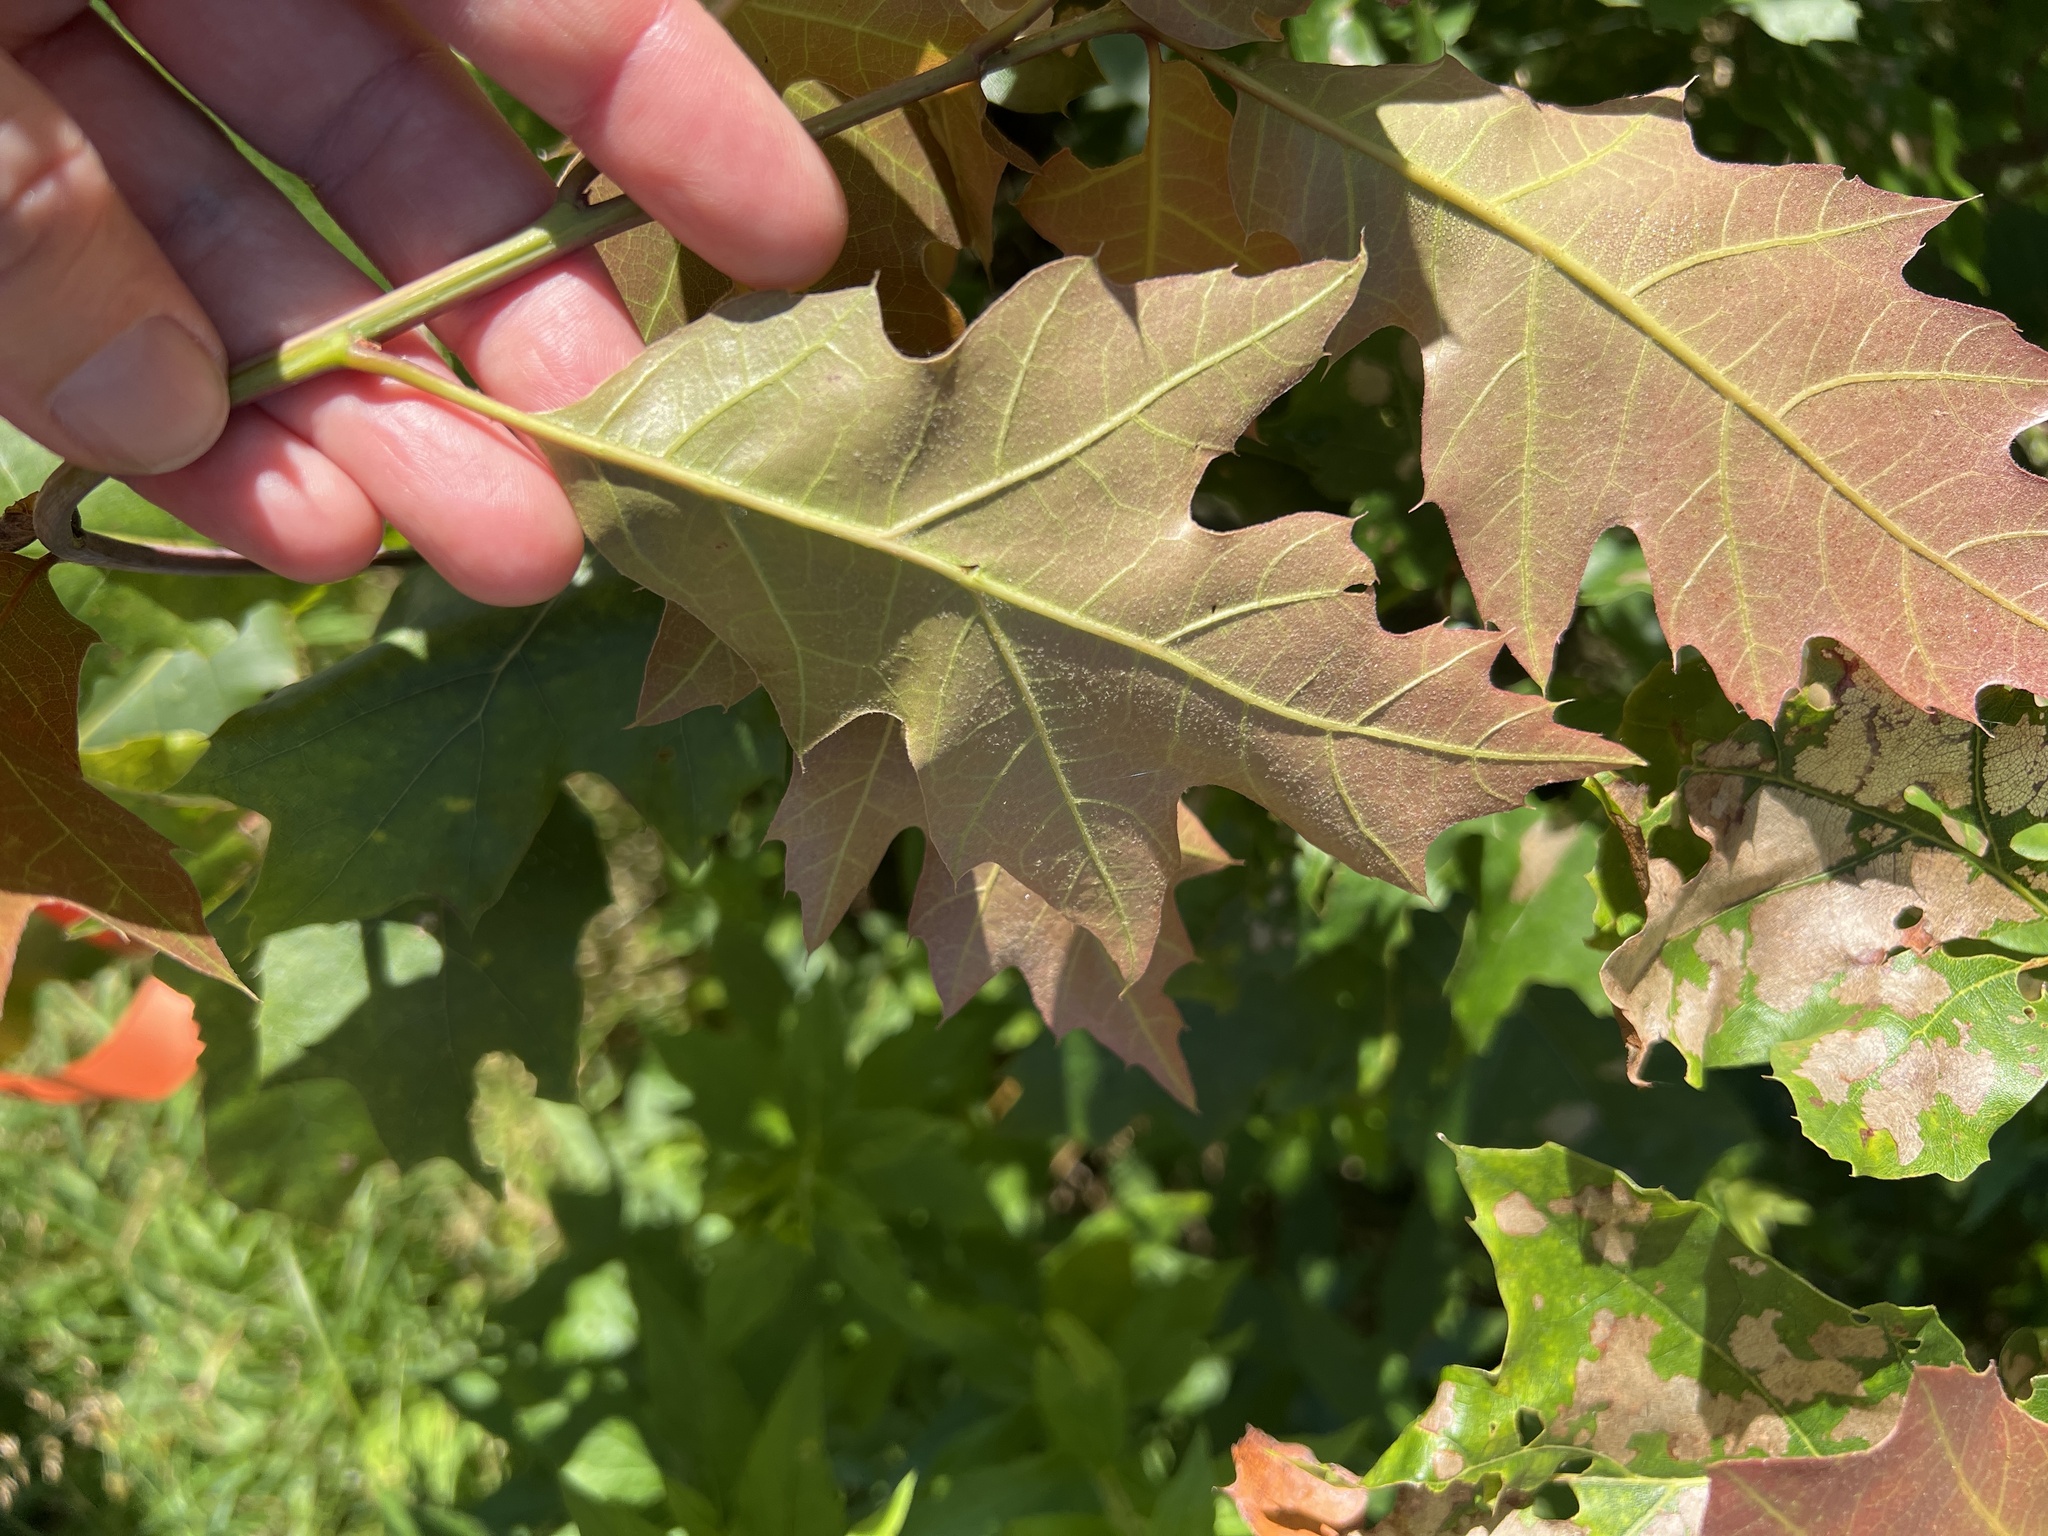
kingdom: Plantae
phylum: Tracheophyta
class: Magnoliopsida
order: Fagales
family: Fagaceae
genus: Quercus
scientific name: Quercus rubra
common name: Red oak
